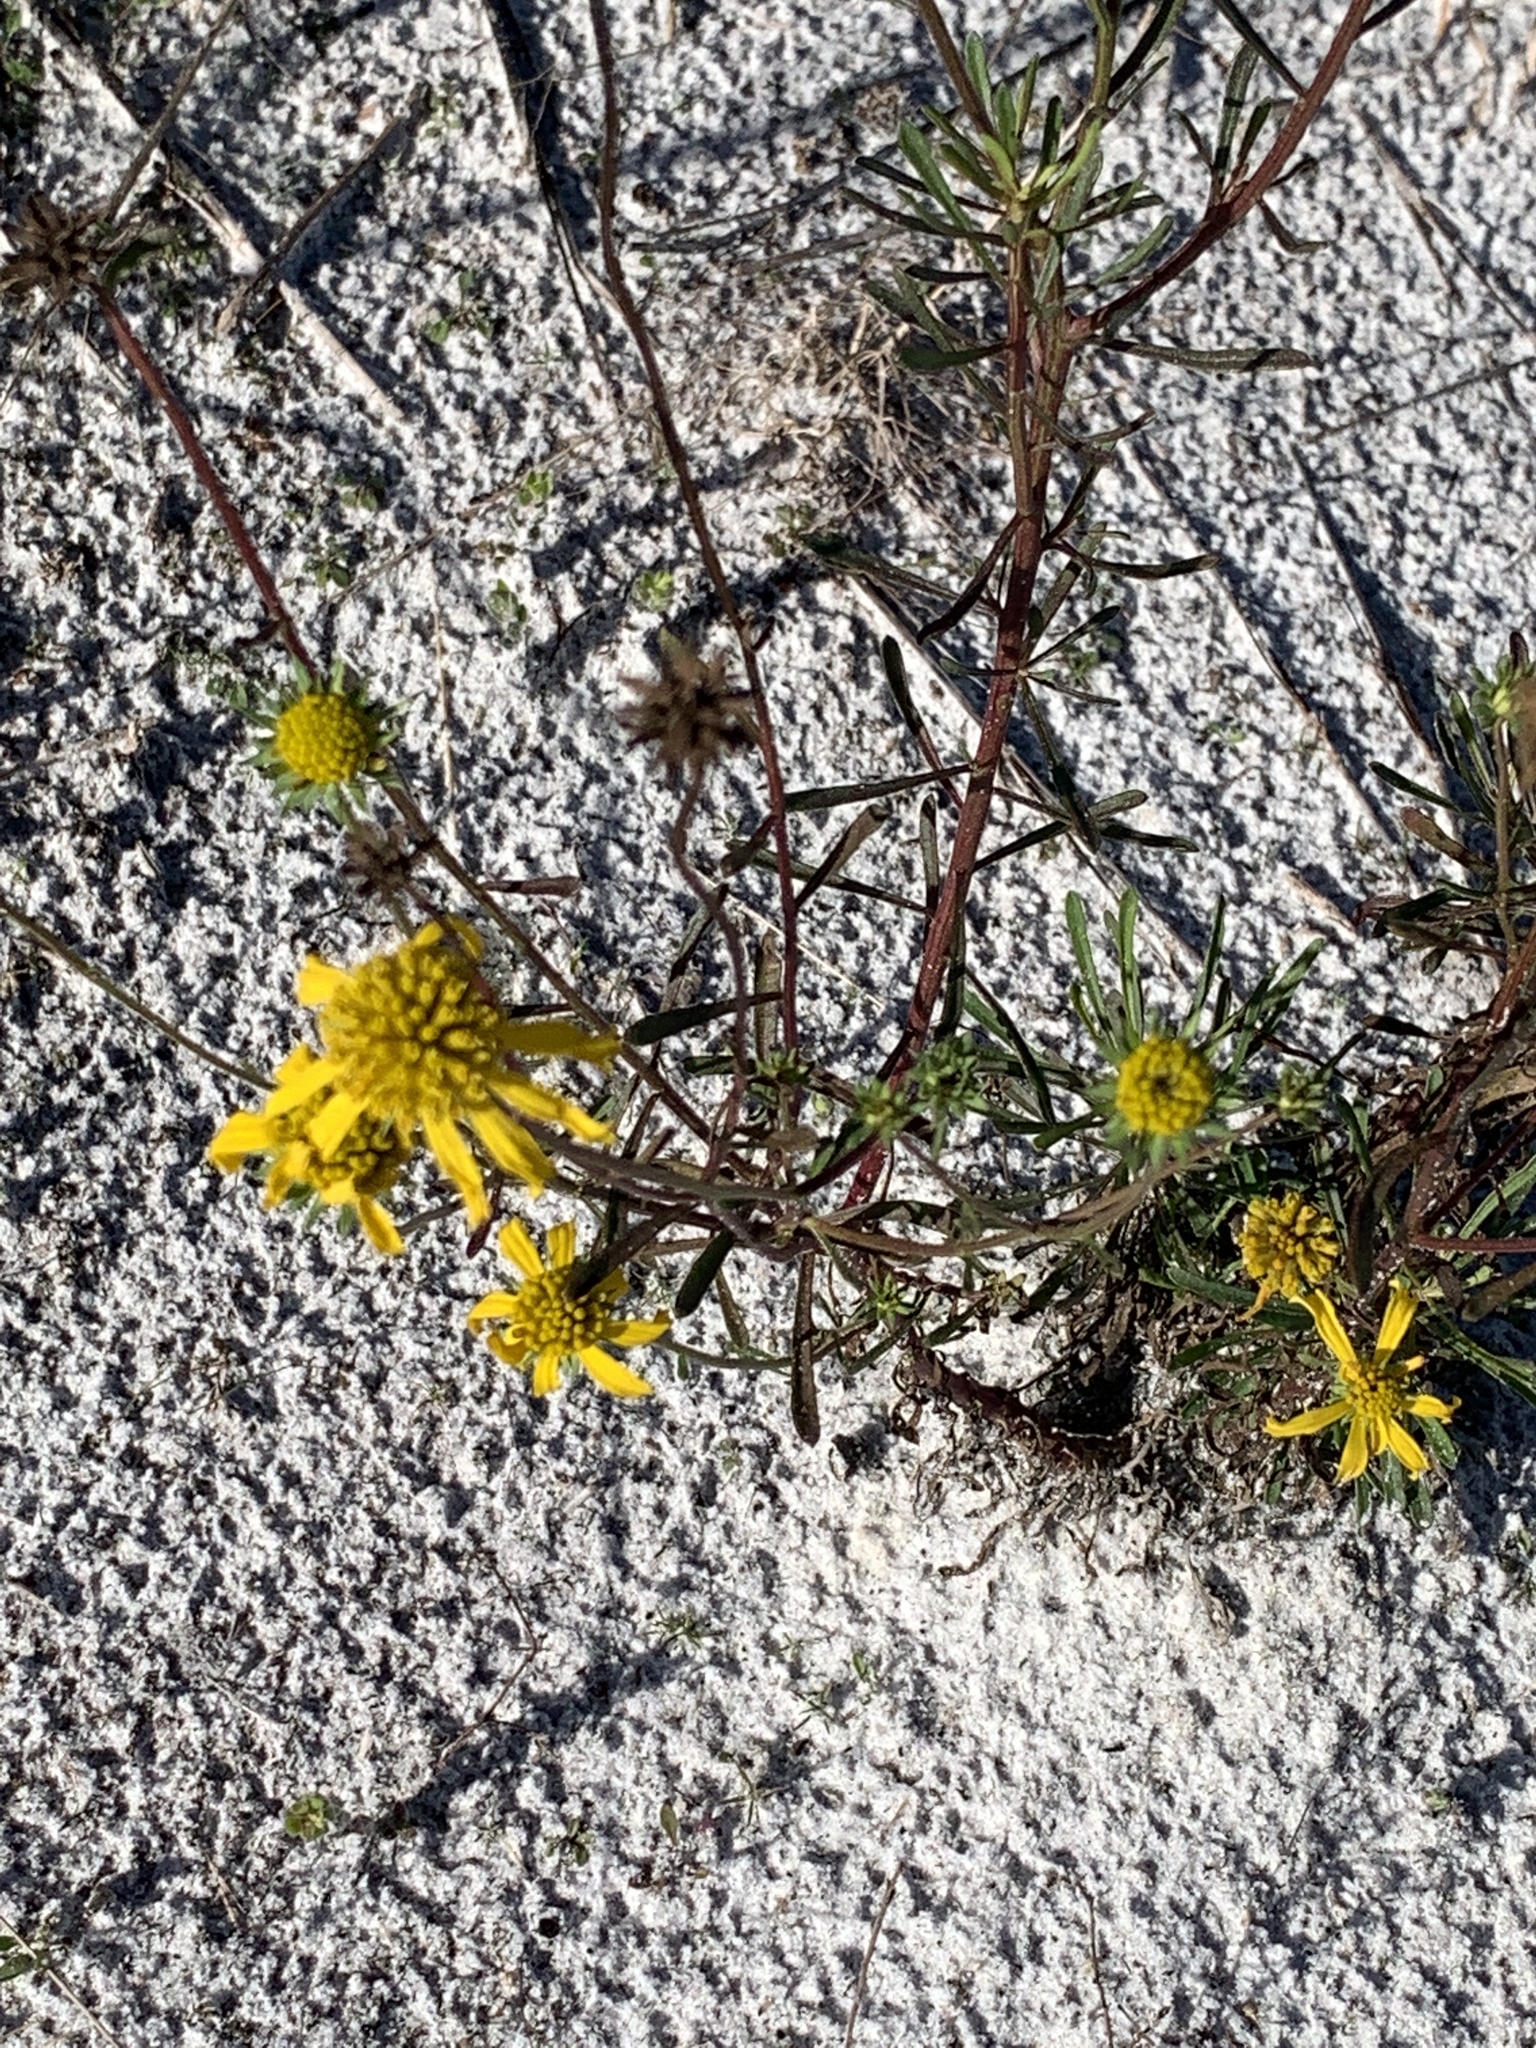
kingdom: Plantae
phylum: Tracheophyta
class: Magnoliopsida
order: Asterales
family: Asteraceae
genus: Balduina
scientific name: Balduina angustifolia
